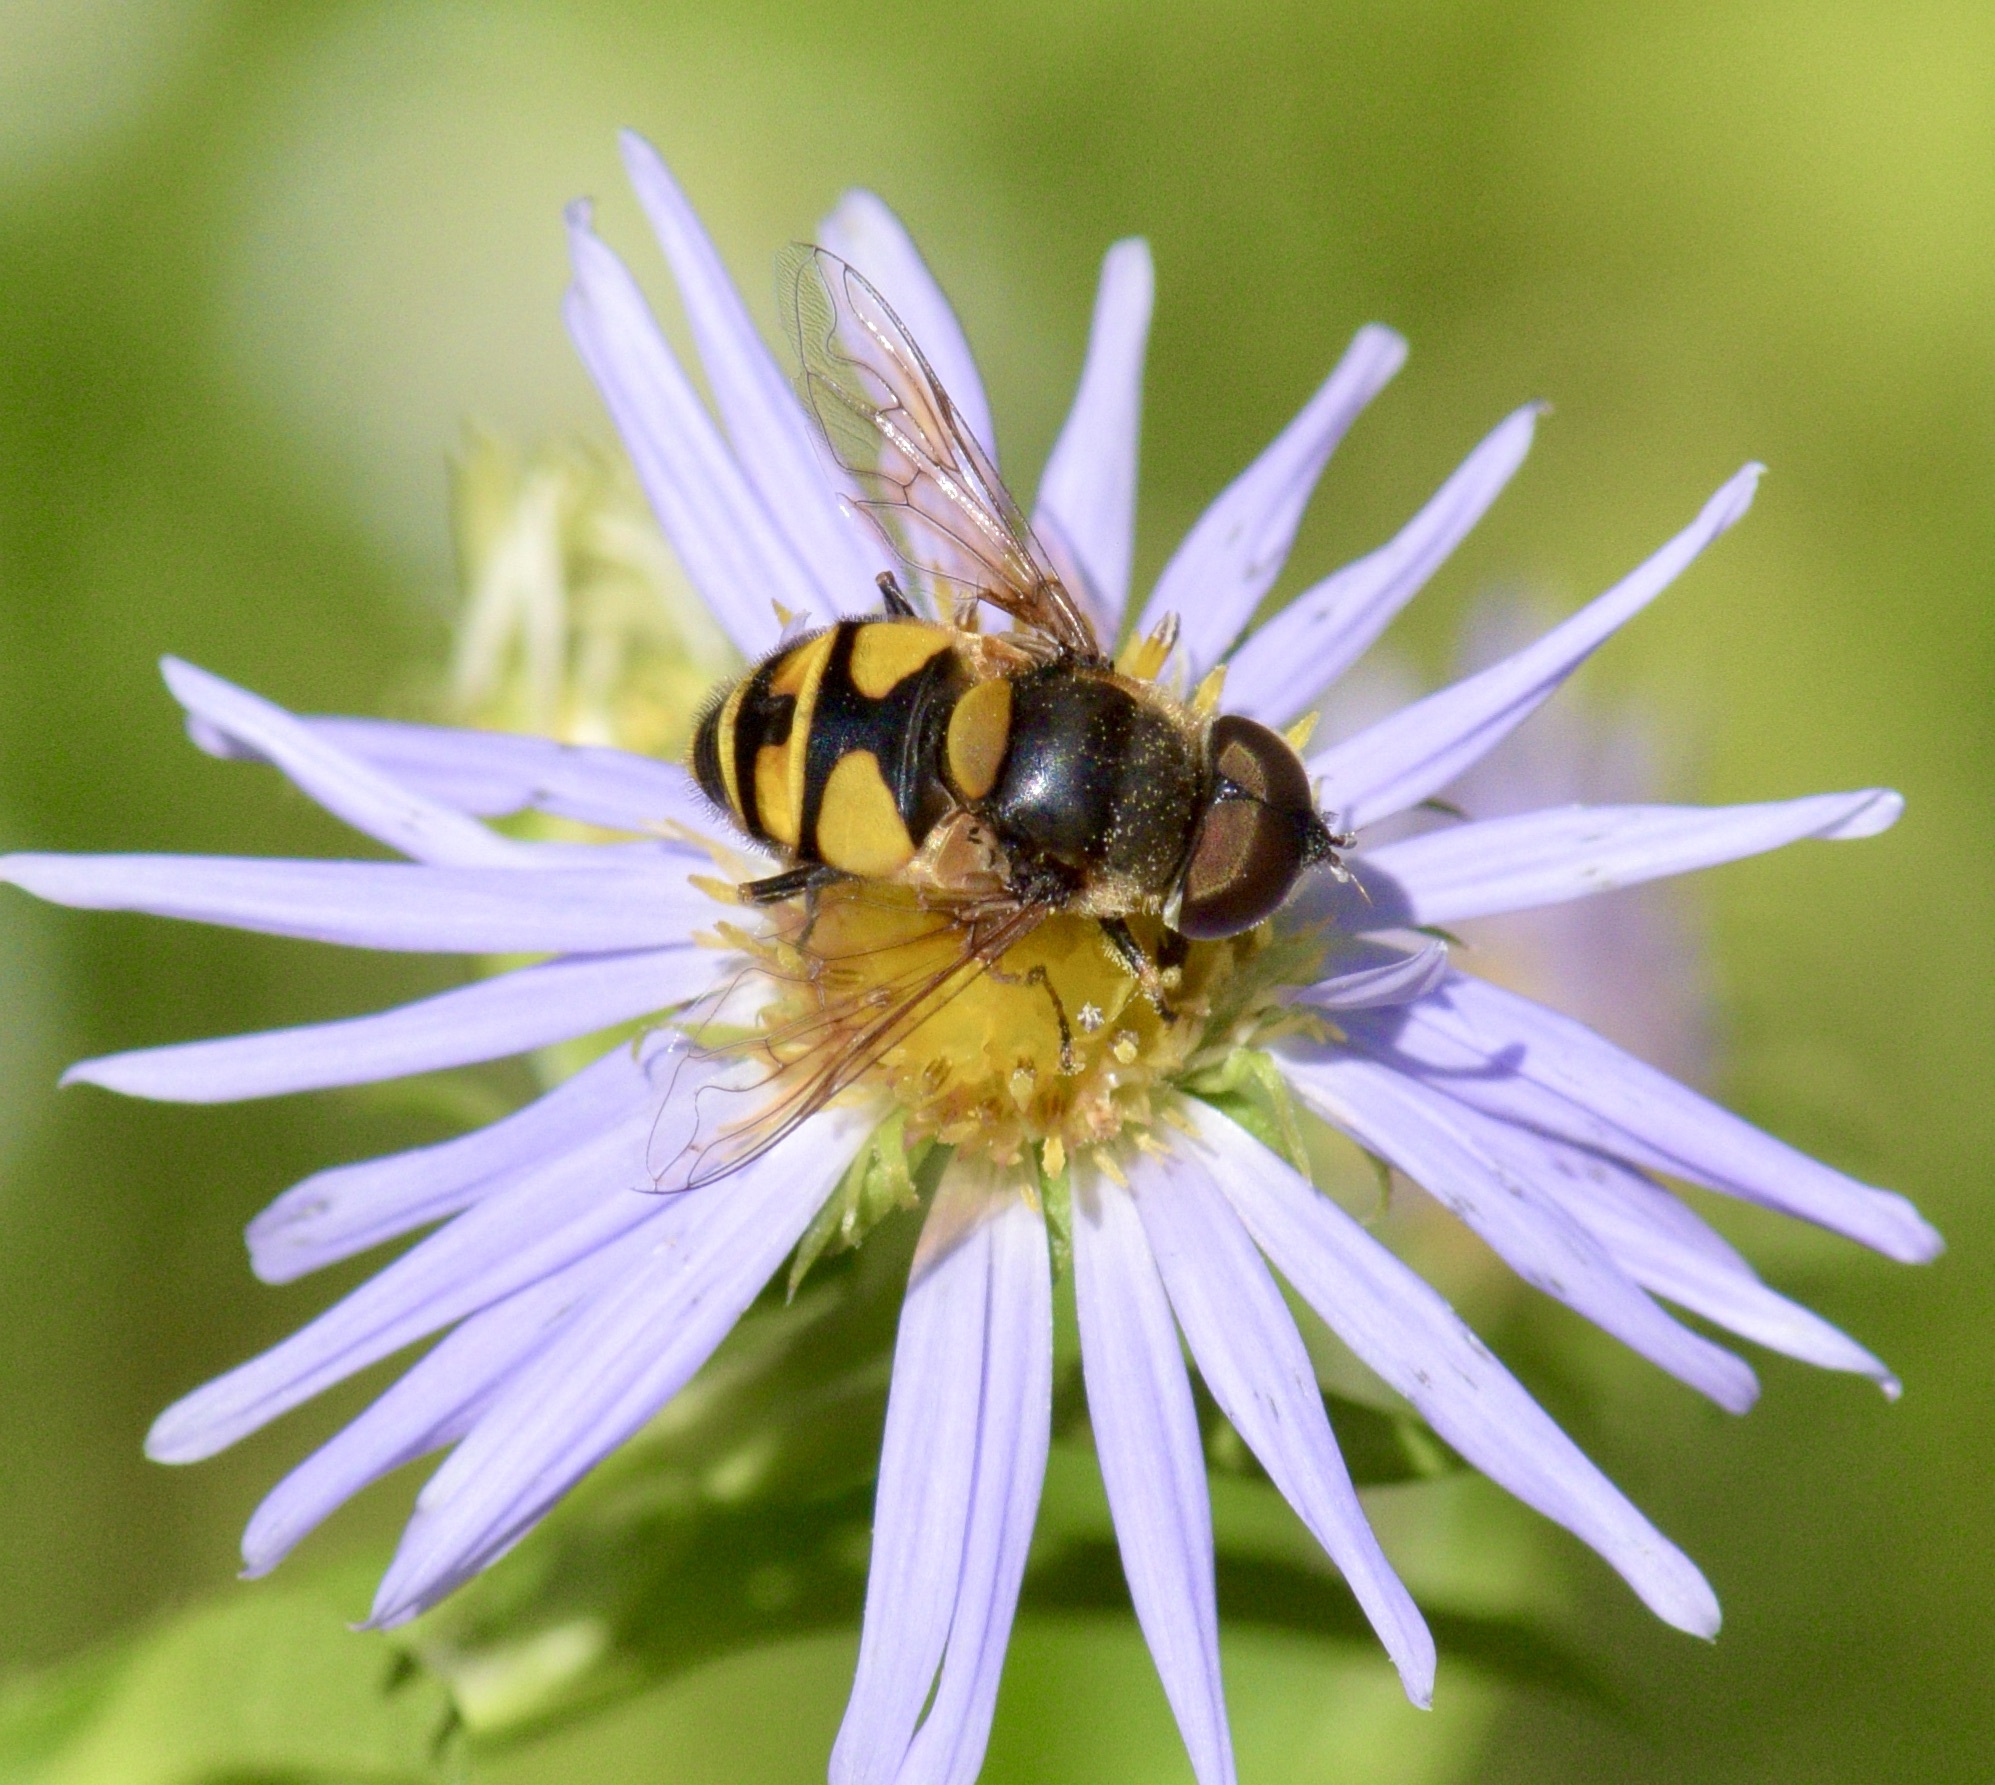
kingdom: Animalia
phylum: Arthropoda
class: Insecta
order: Diptera
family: Syrphidae
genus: Eristalis
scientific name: Eristalis transversa
